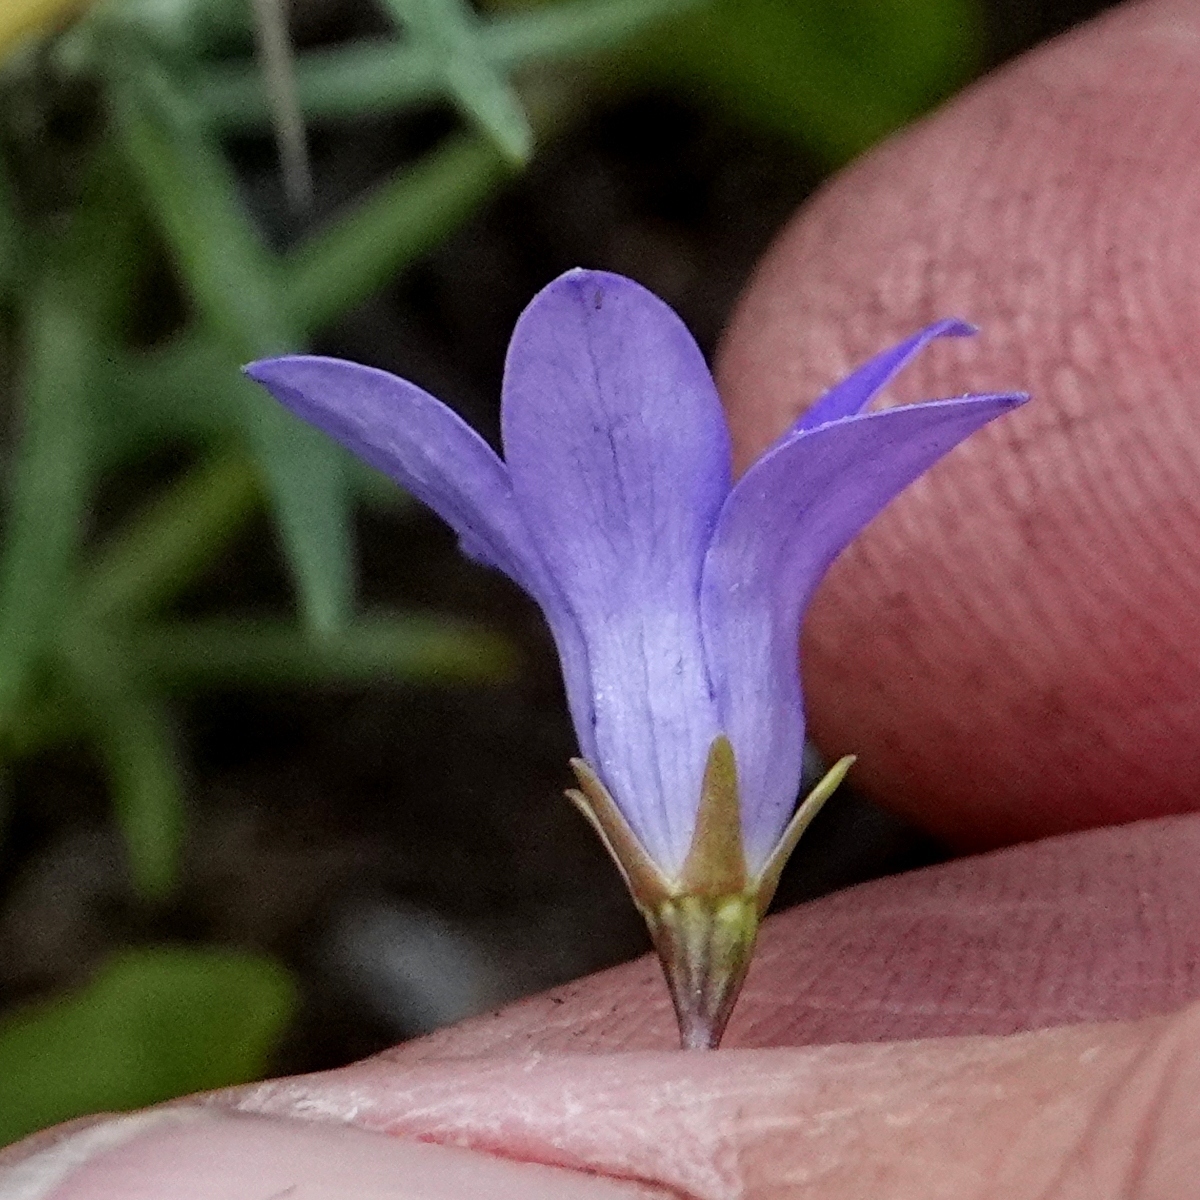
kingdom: Plantae
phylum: Tracheophyta
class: Magnoliopsida
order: Asterales
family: Campanulaceae
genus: Wahlenbergia
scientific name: Wahlenbergia densifolia
